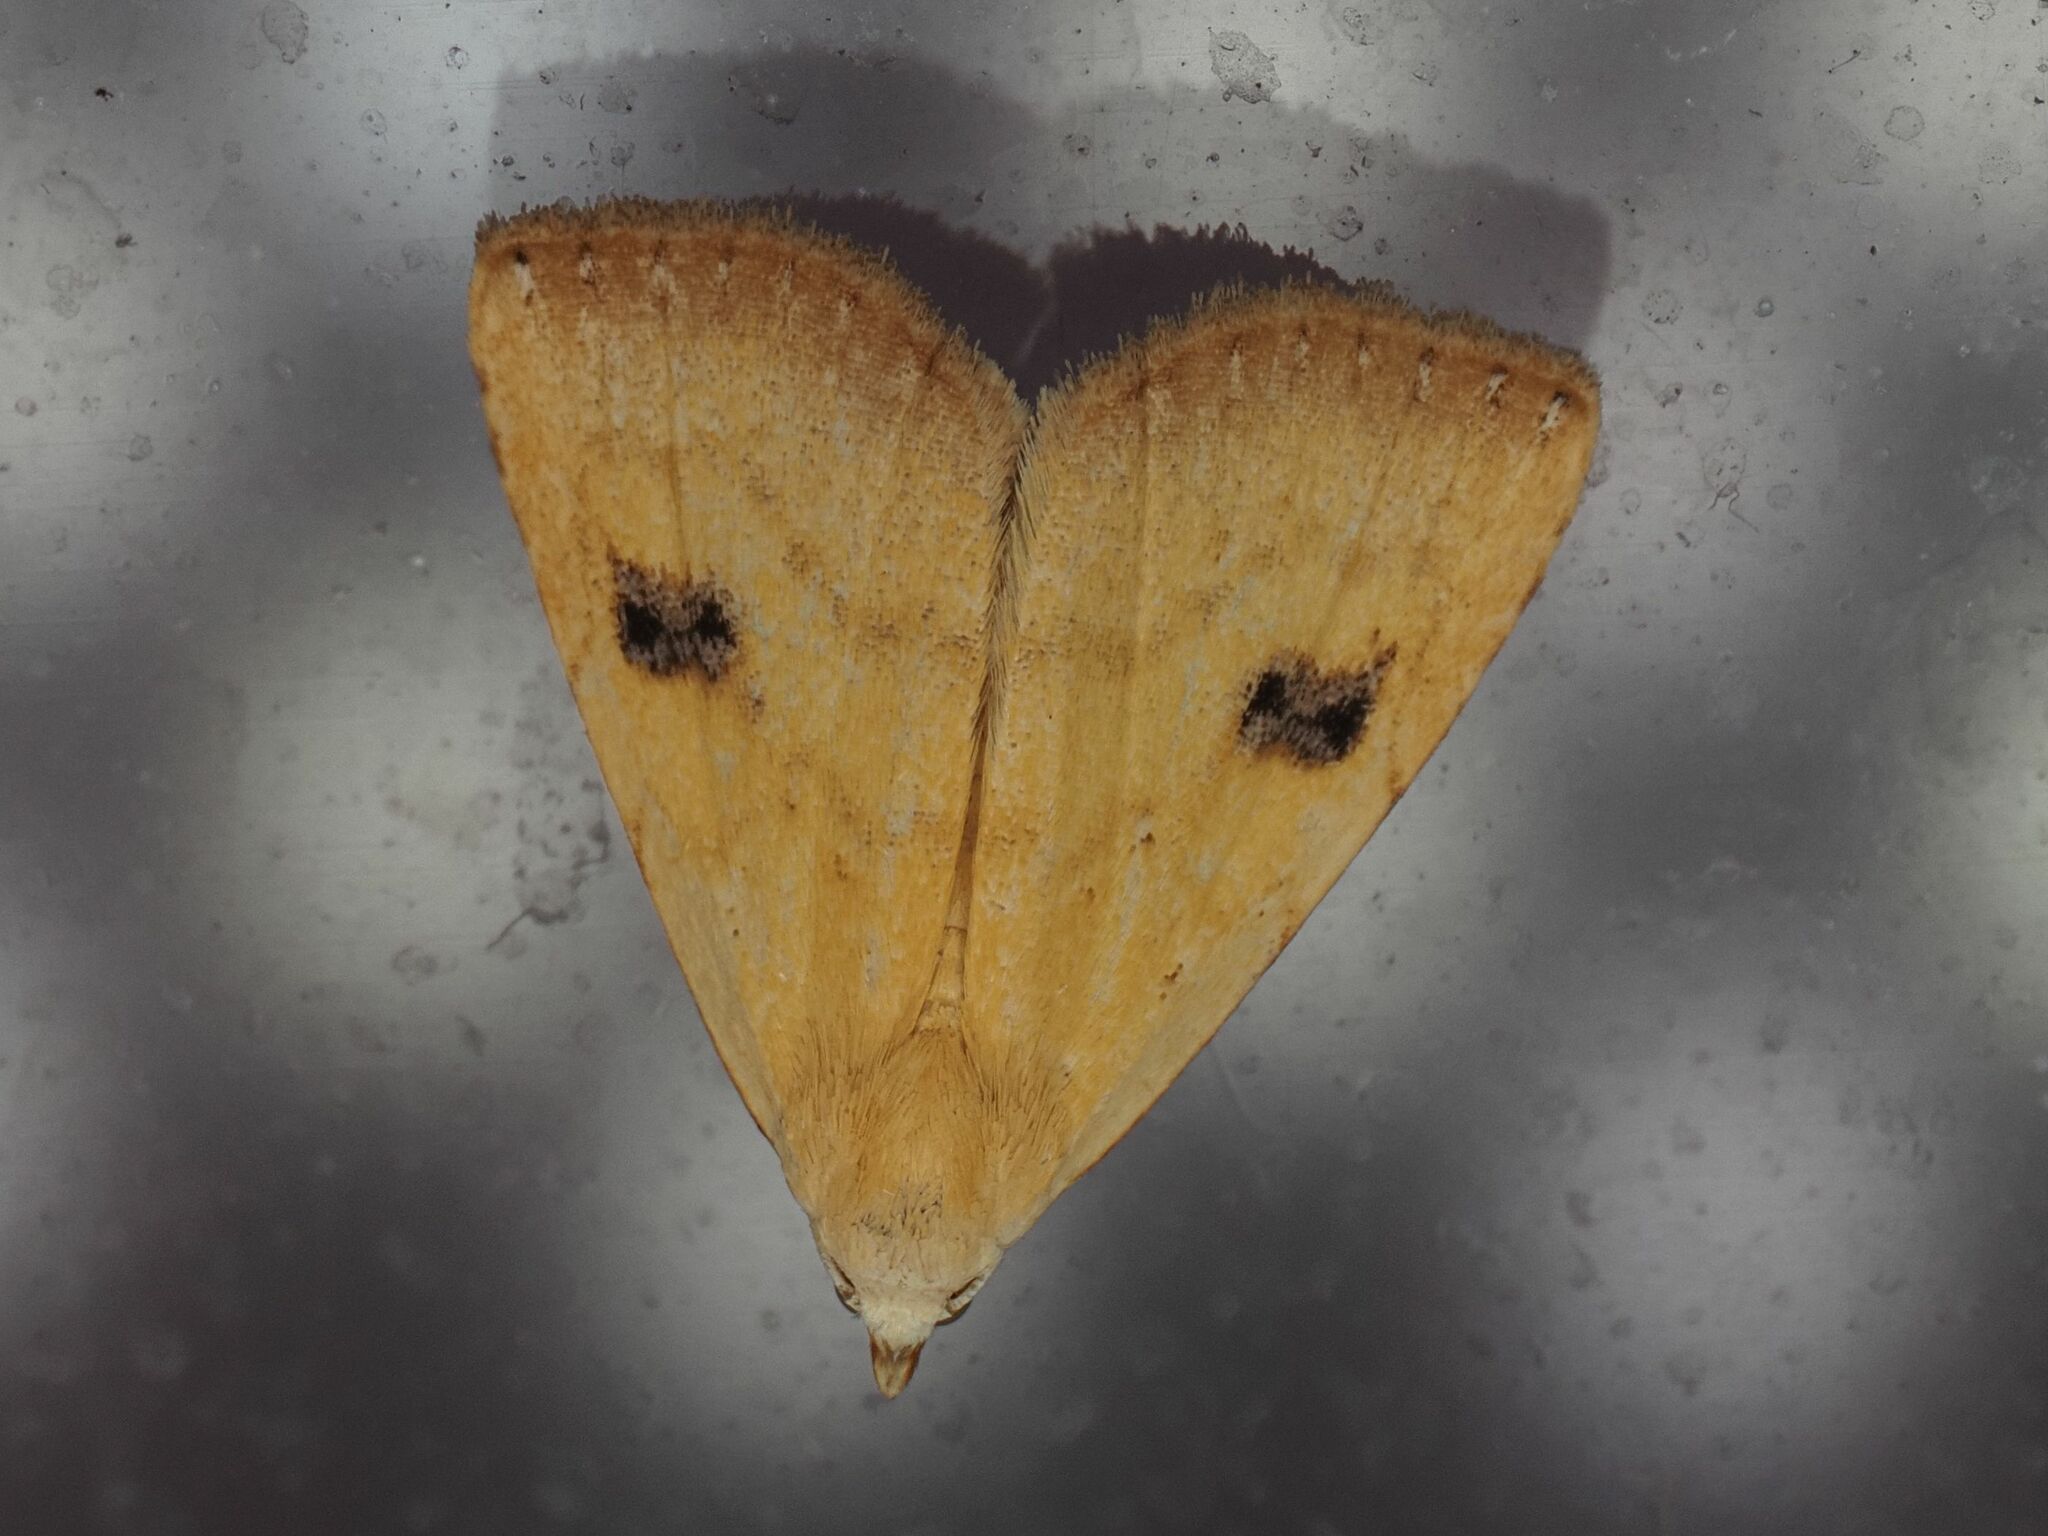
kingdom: Animalia
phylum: Arthropoda
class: Insecta
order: Lepidoptera
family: Erebidae
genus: Rivula
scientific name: Rivula sericealis
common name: Straw dot
